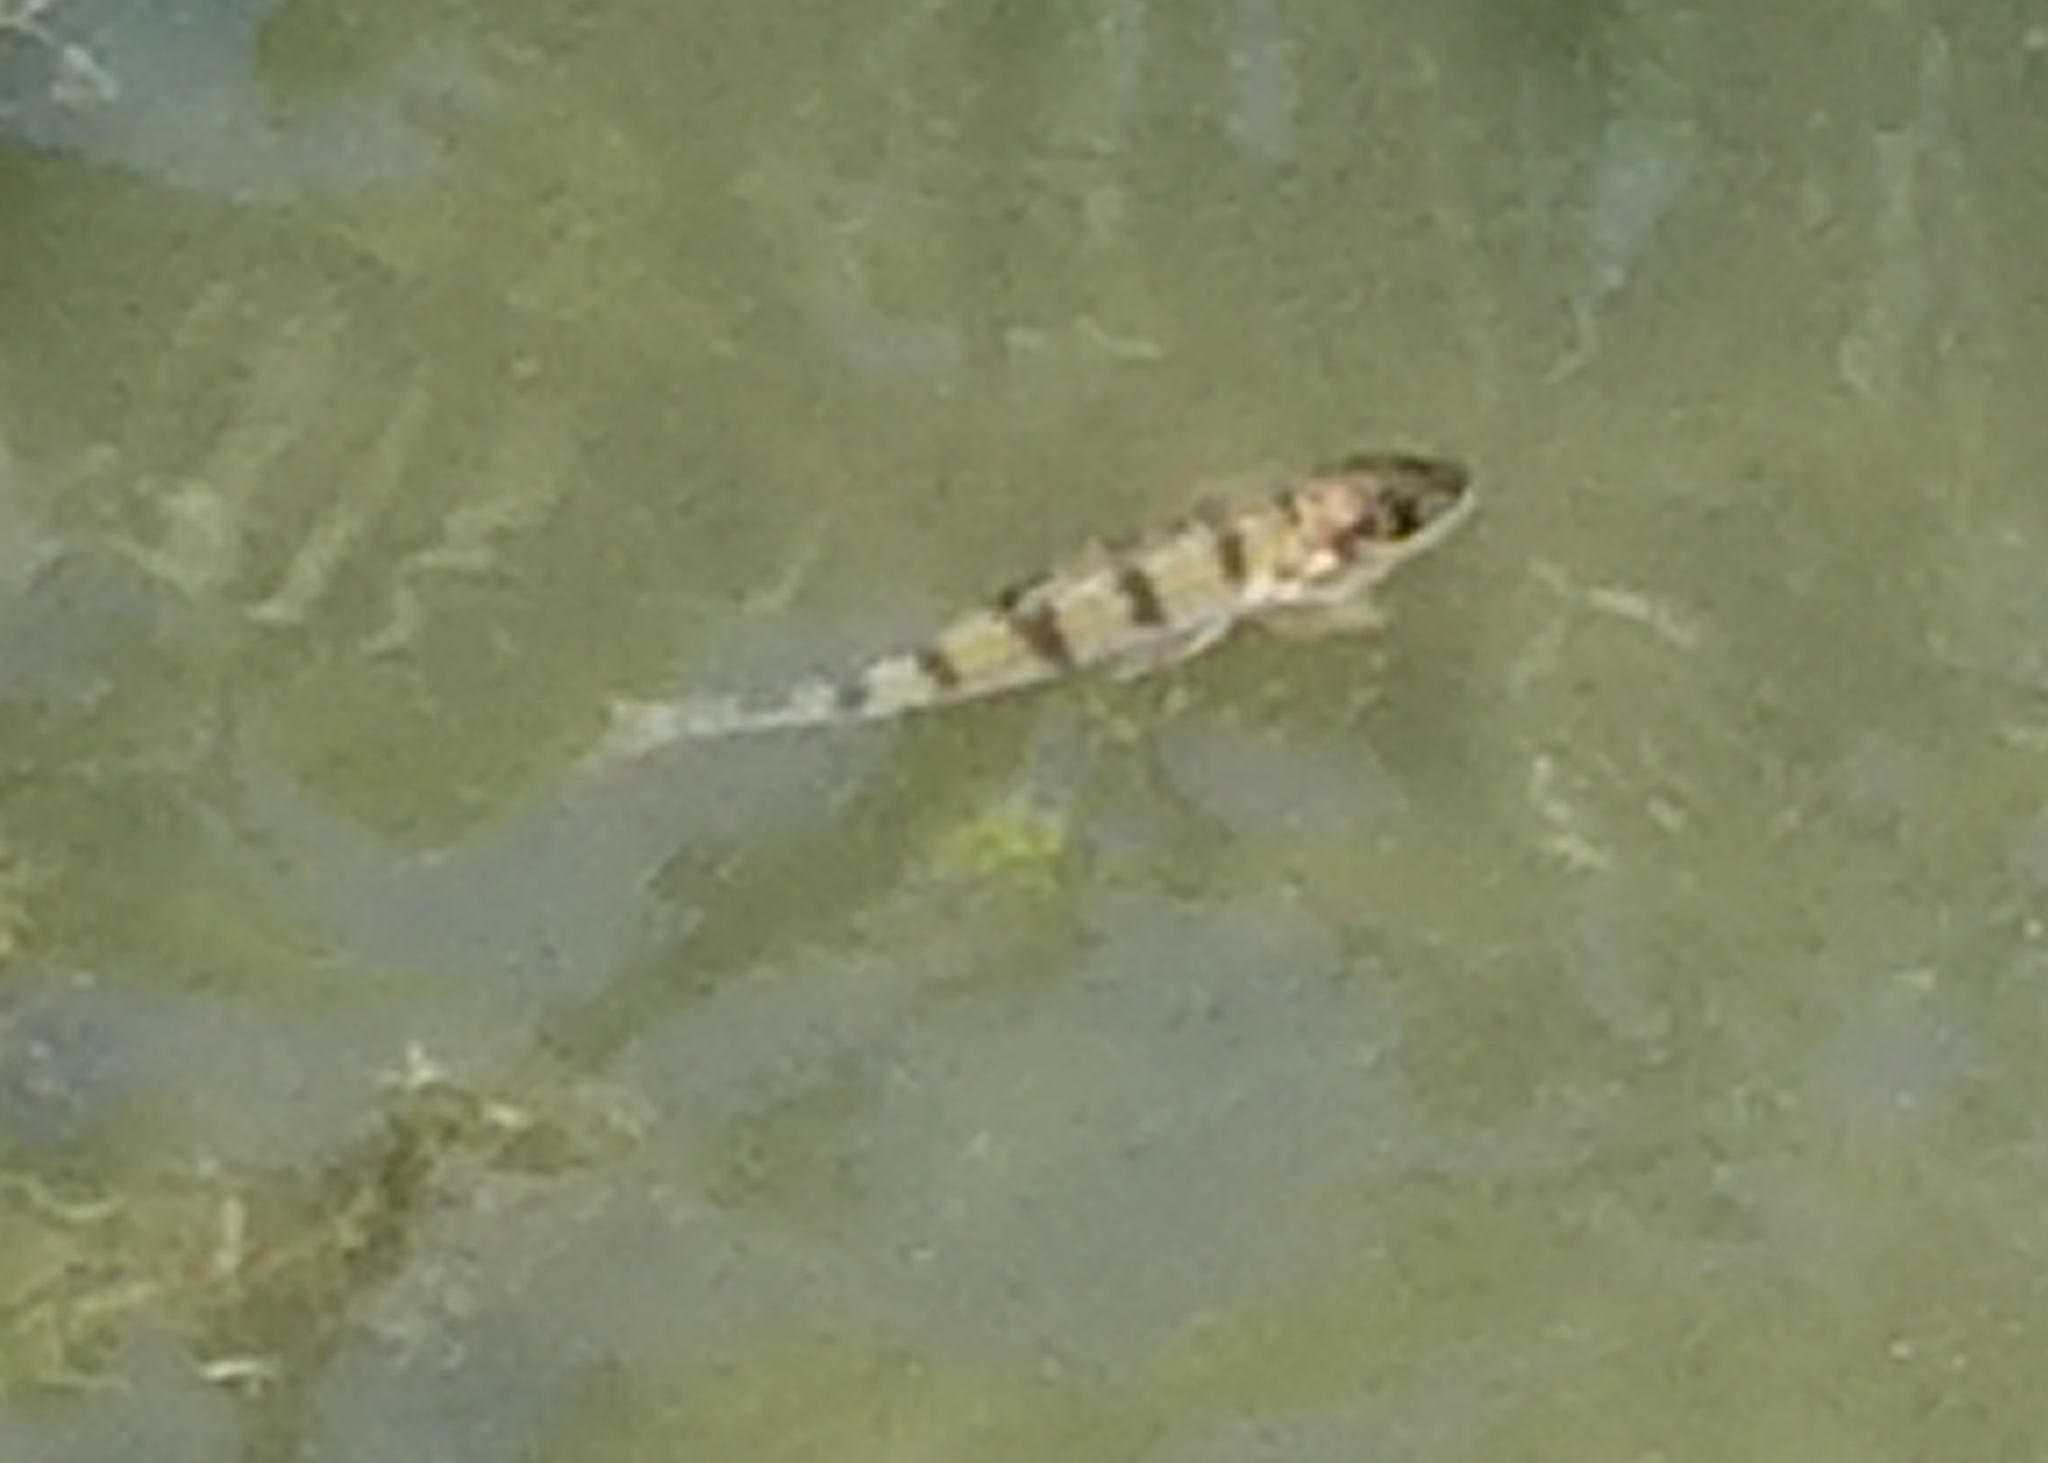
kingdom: Animalia
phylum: Chordata
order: Perciformes
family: Percidae
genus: Perca
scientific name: Perca fluviatilis
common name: Perch
